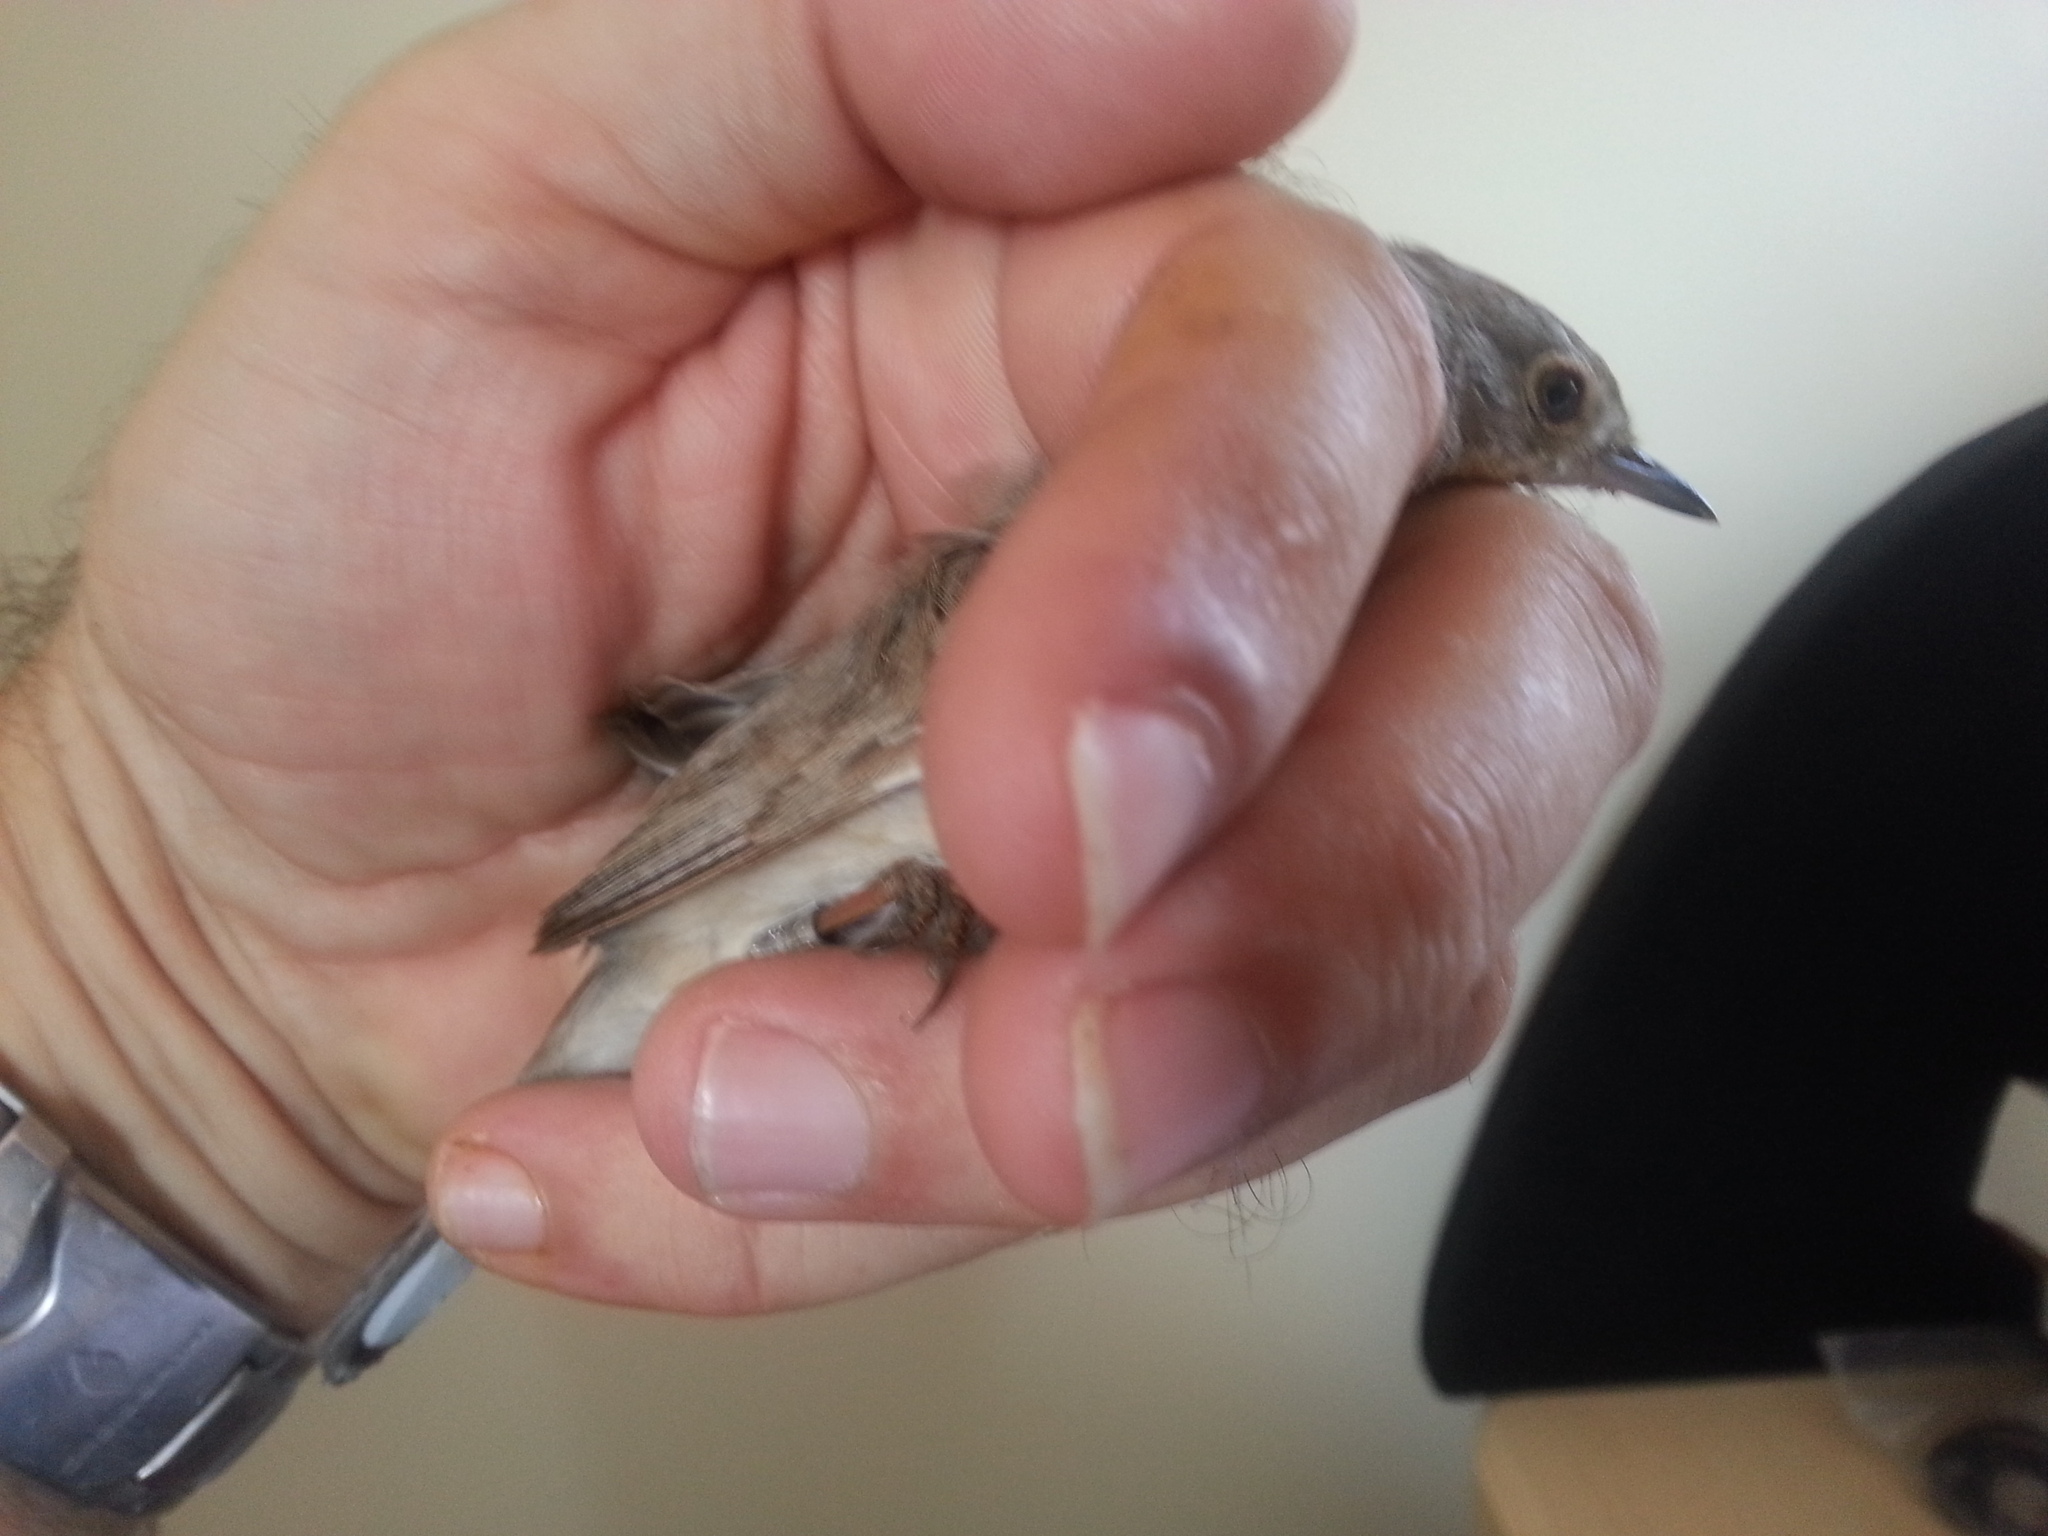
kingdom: Animalia
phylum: Chordata
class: Aves
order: Passeriformes
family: Sylviidae
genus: Sylvia
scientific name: Sylvia mystacea
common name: Menetries's warbler
